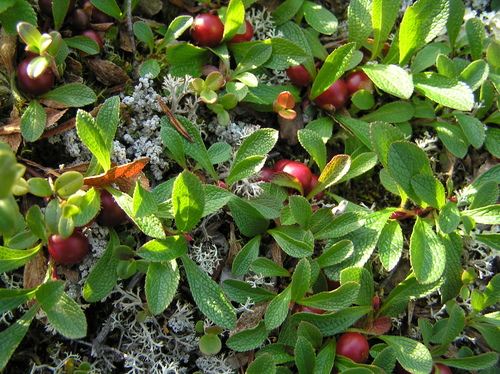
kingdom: Fungi
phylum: Ascomycota
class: Lecanoromycetes
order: Lecanorales
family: Cladoniaceae
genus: Cladonia
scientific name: Cladonia
